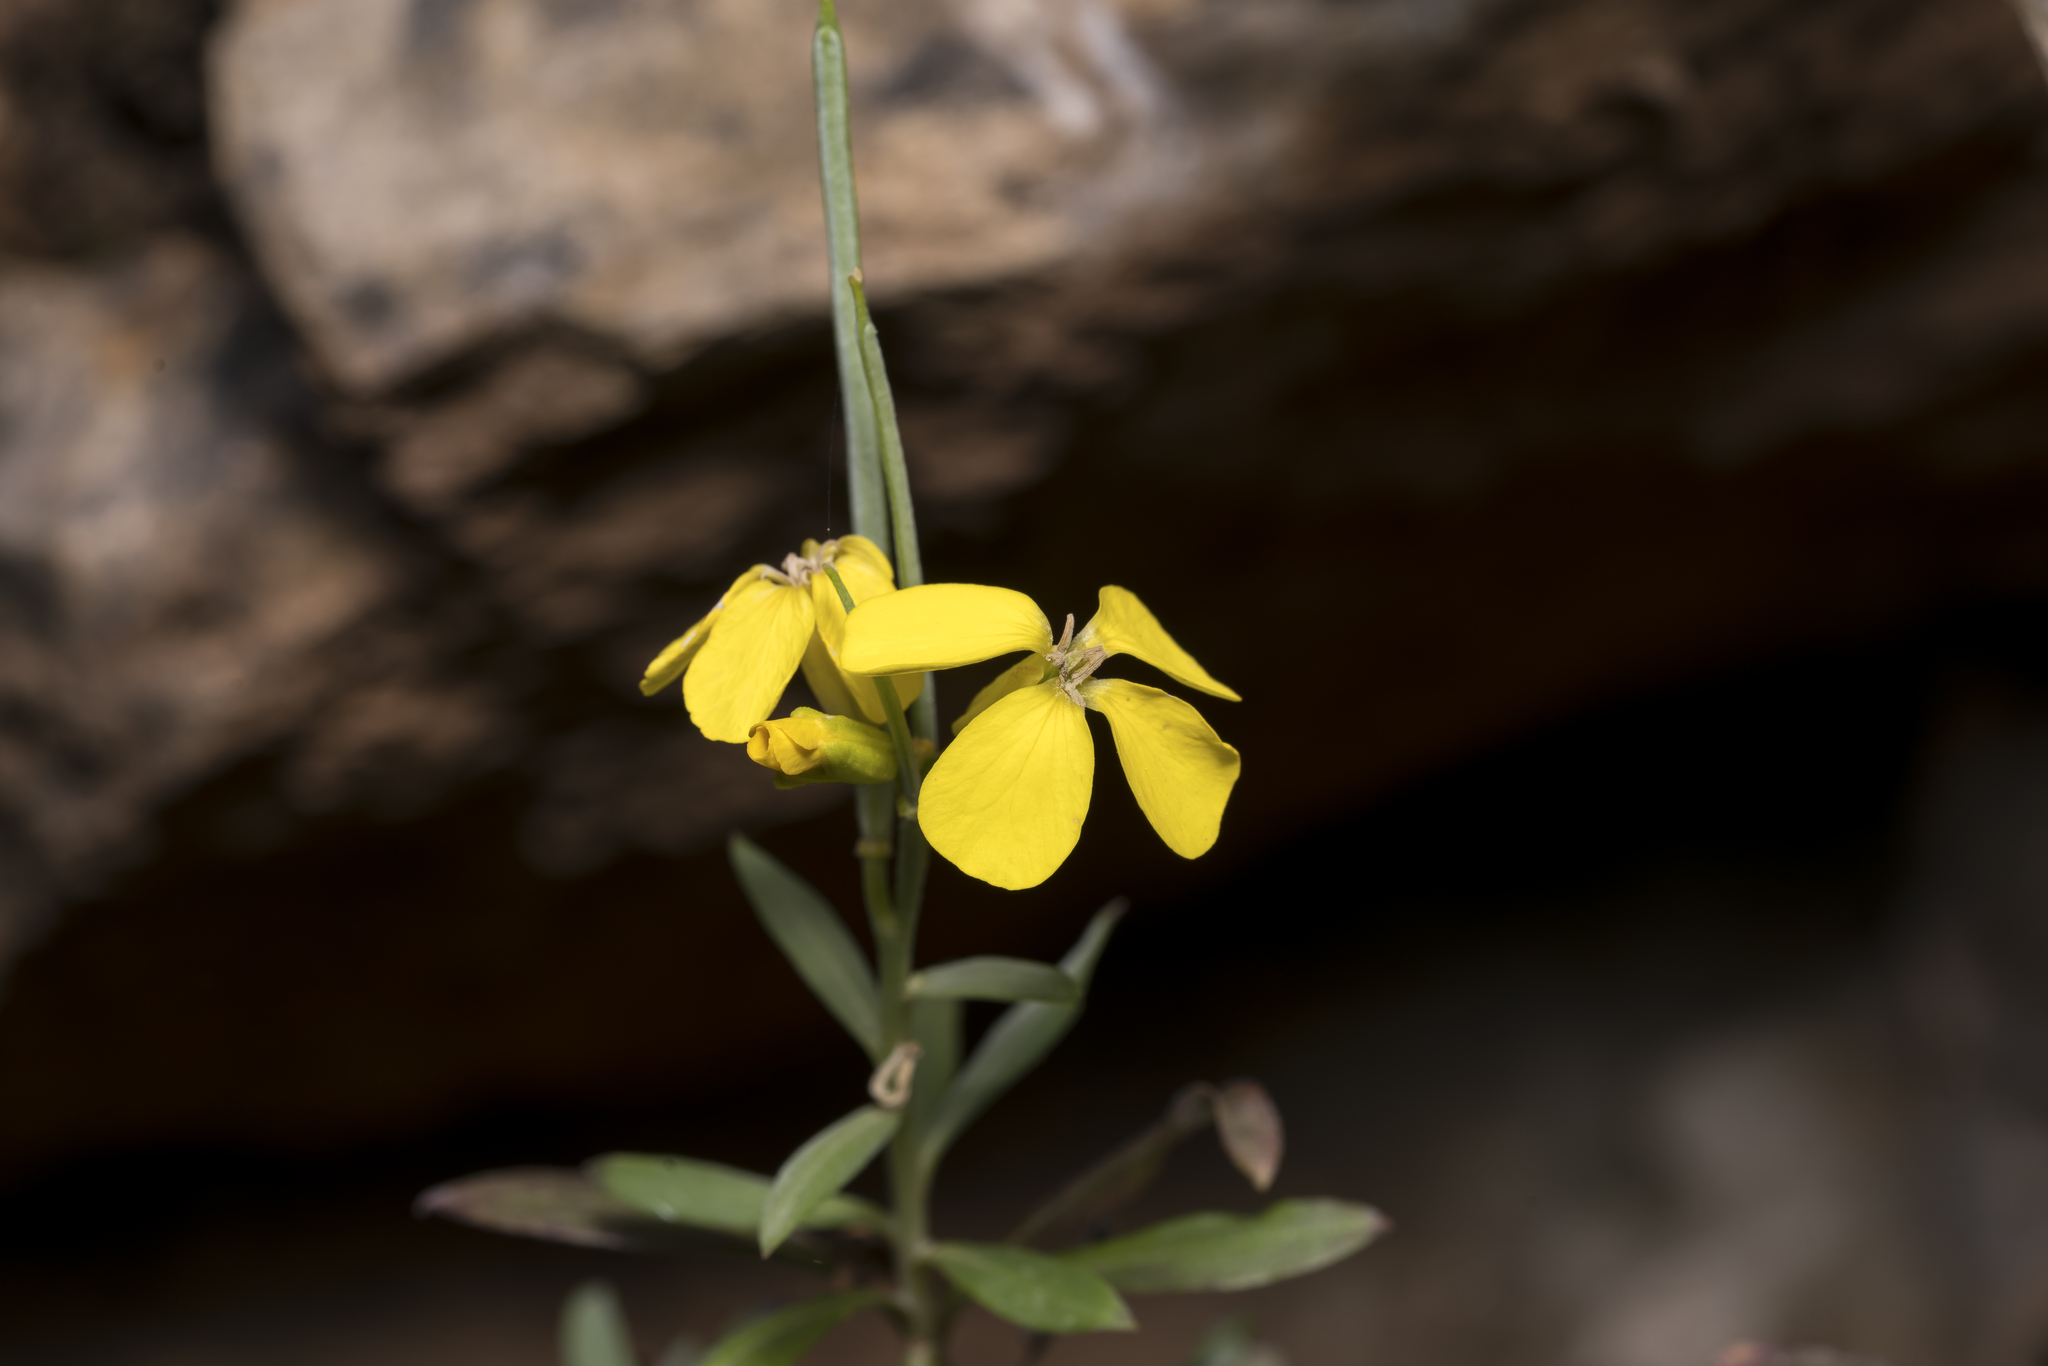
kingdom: Plantae
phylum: Tracheophyta
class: Magnoliopsida
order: Brassicales
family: Brassicaceae
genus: Erysimum
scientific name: Erysimum rhodium
